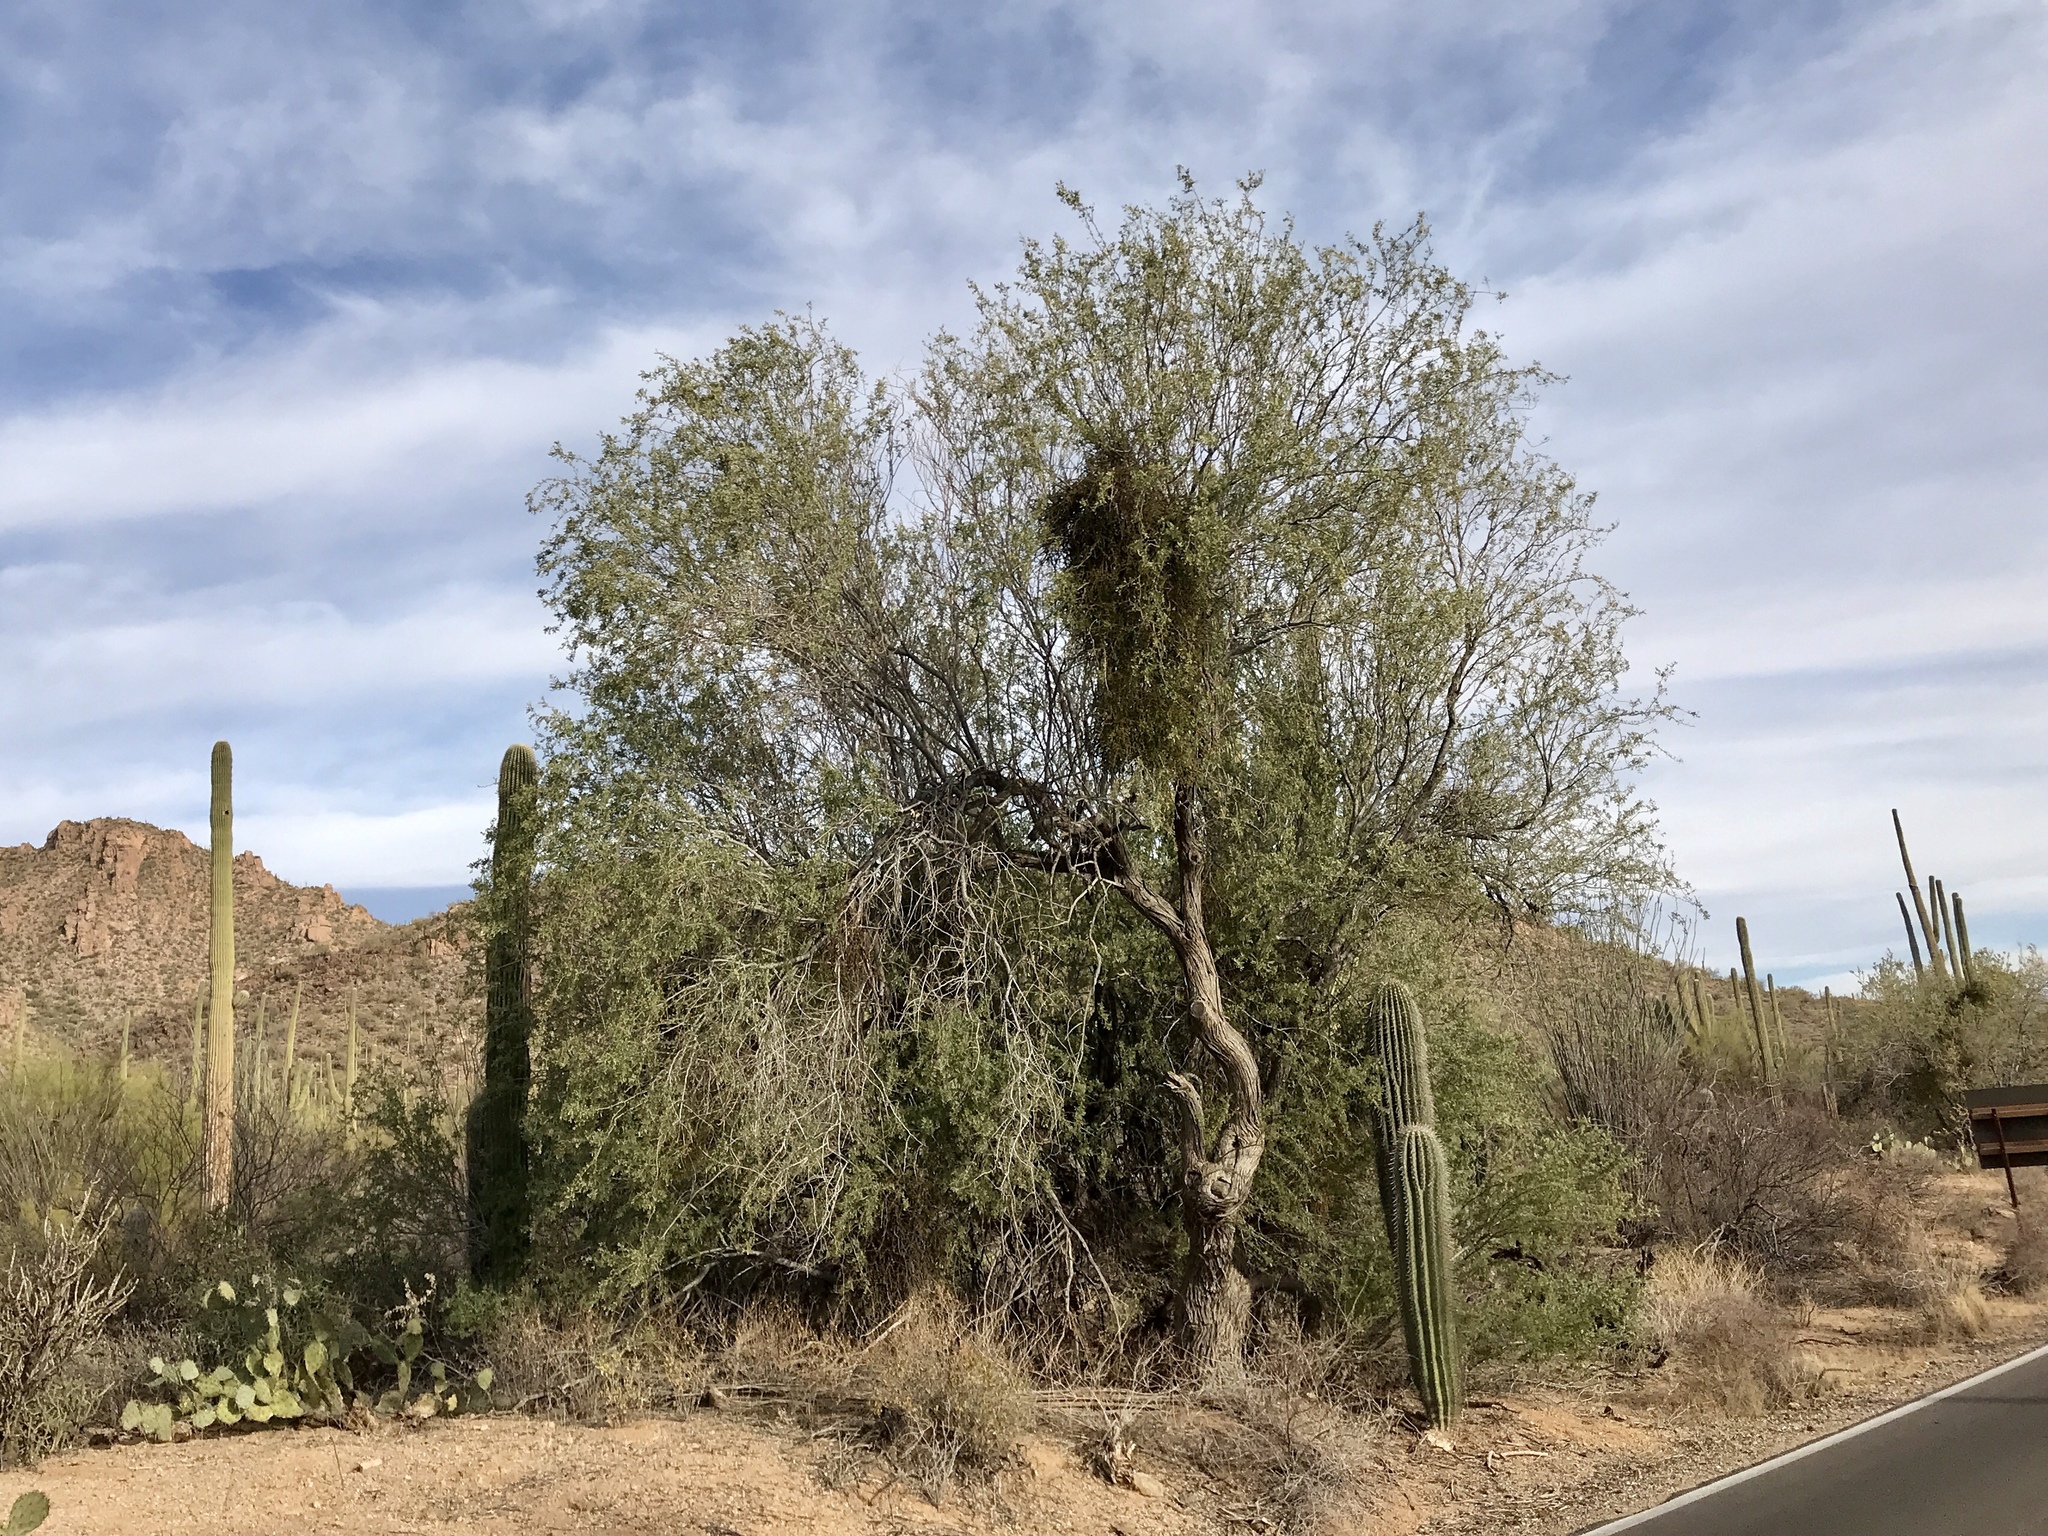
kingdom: Plantae
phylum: Tracheophyta
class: Magnoliopsida
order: Fabales
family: Fabaceae
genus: Olneya
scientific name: Olneya tesota
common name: Desert ironwood
